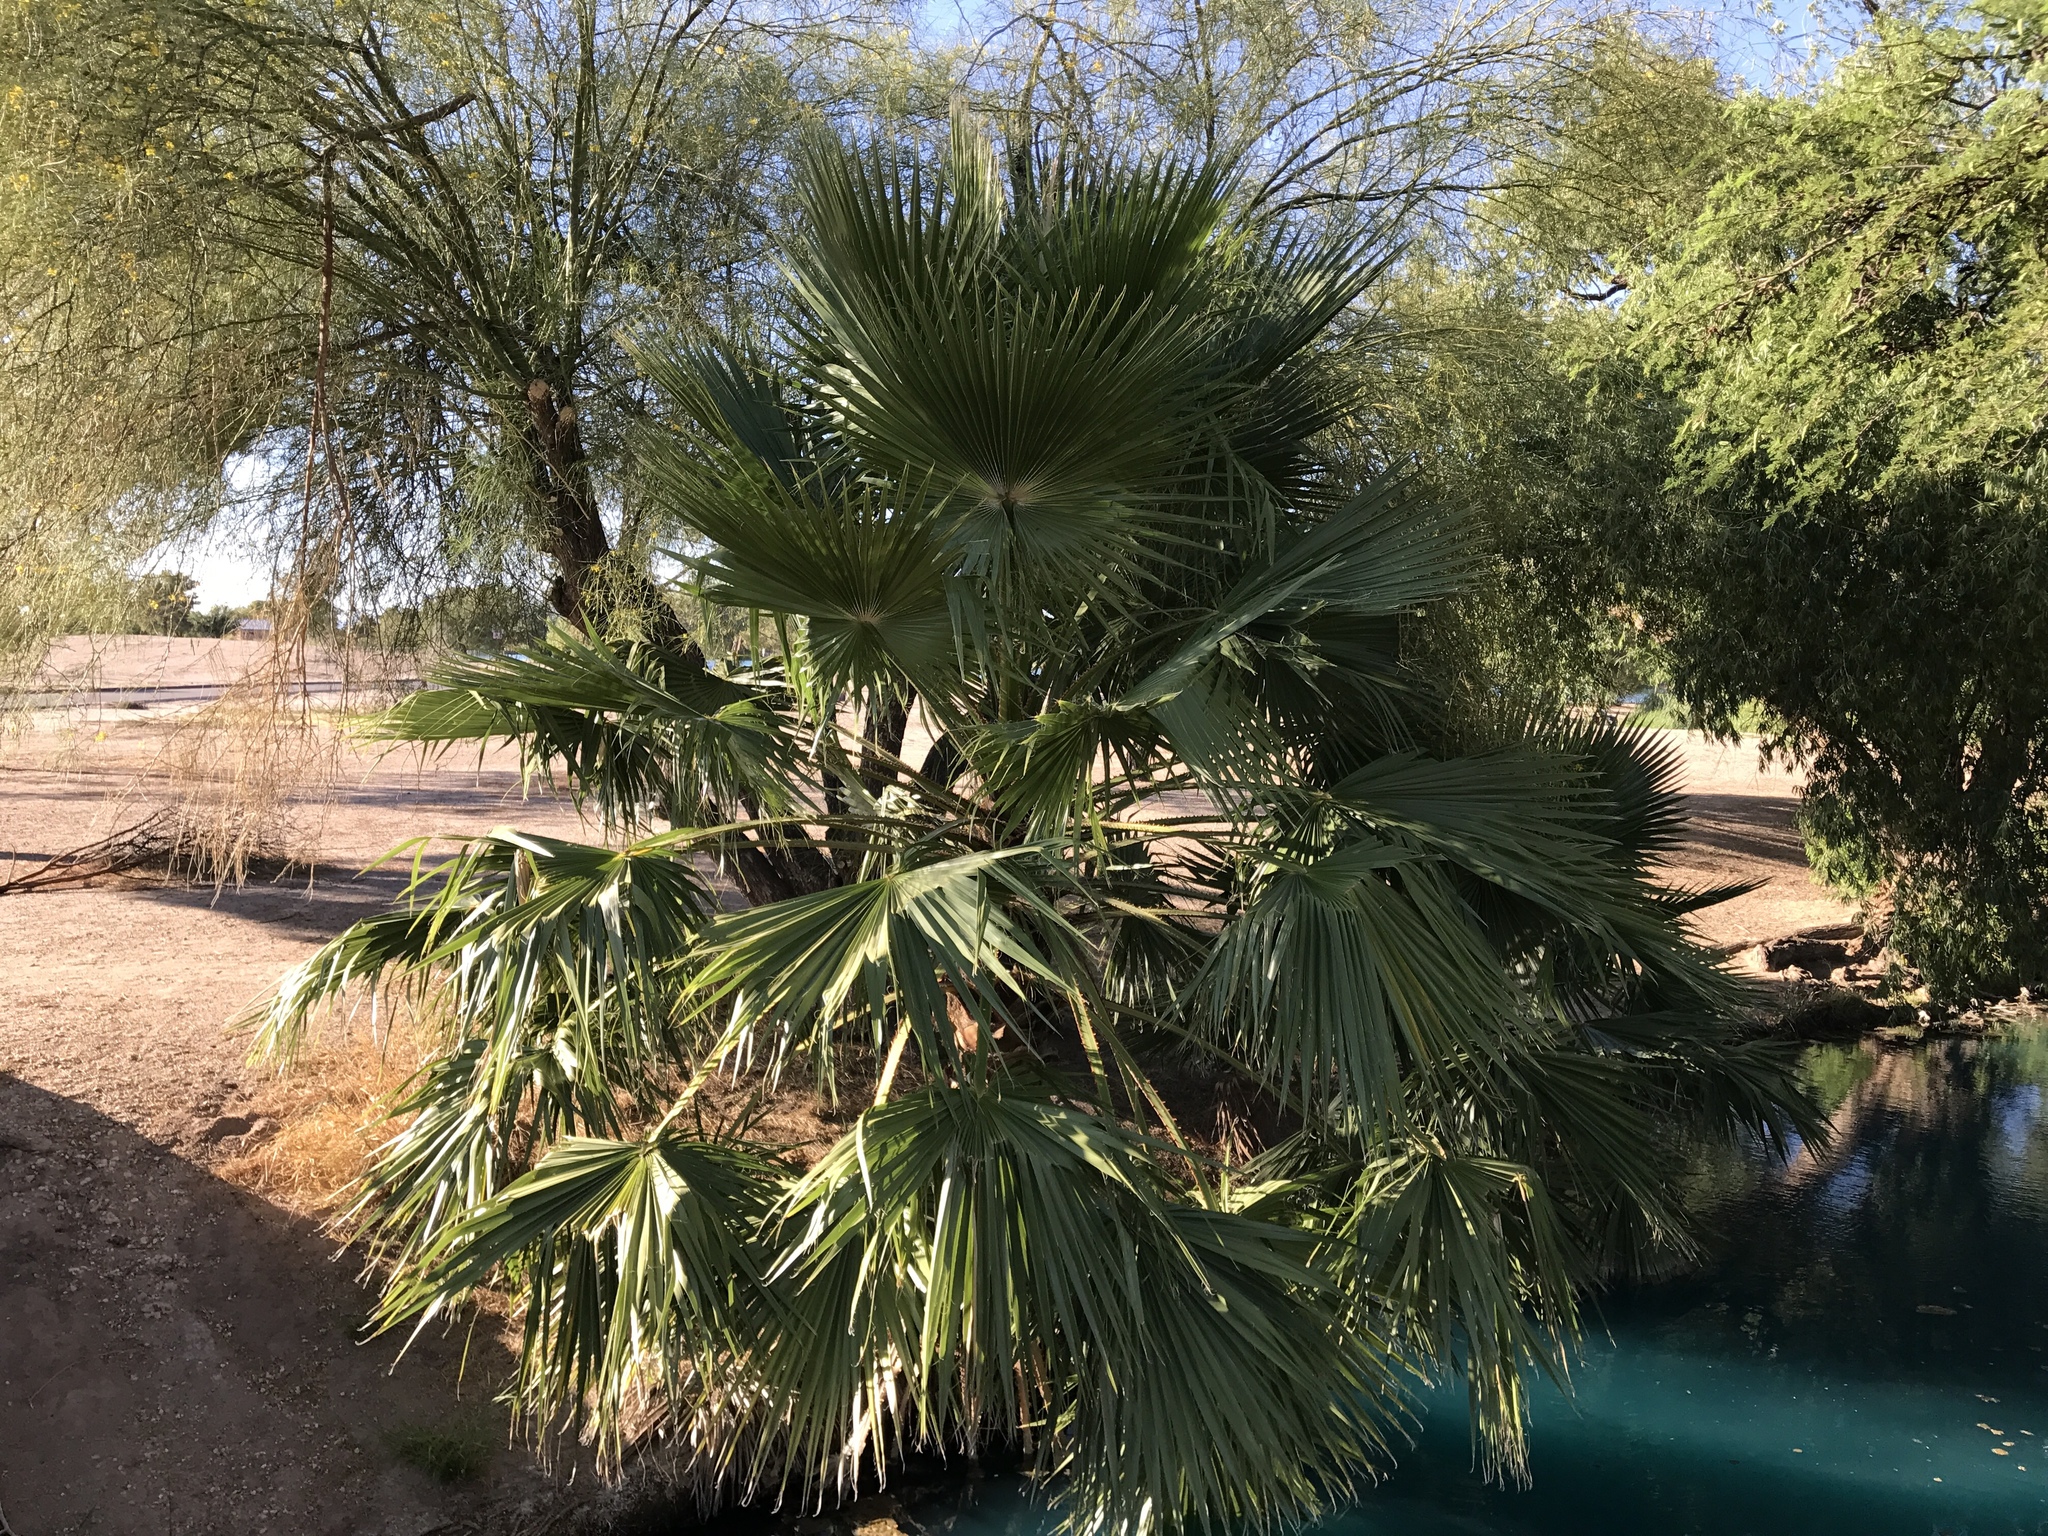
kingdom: Plantae
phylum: Tracheophyta
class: Liliopsida
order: Arecales
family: Arecaceae
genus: Washingtonia
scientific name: Washingtonia filifera
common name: California fan palm
